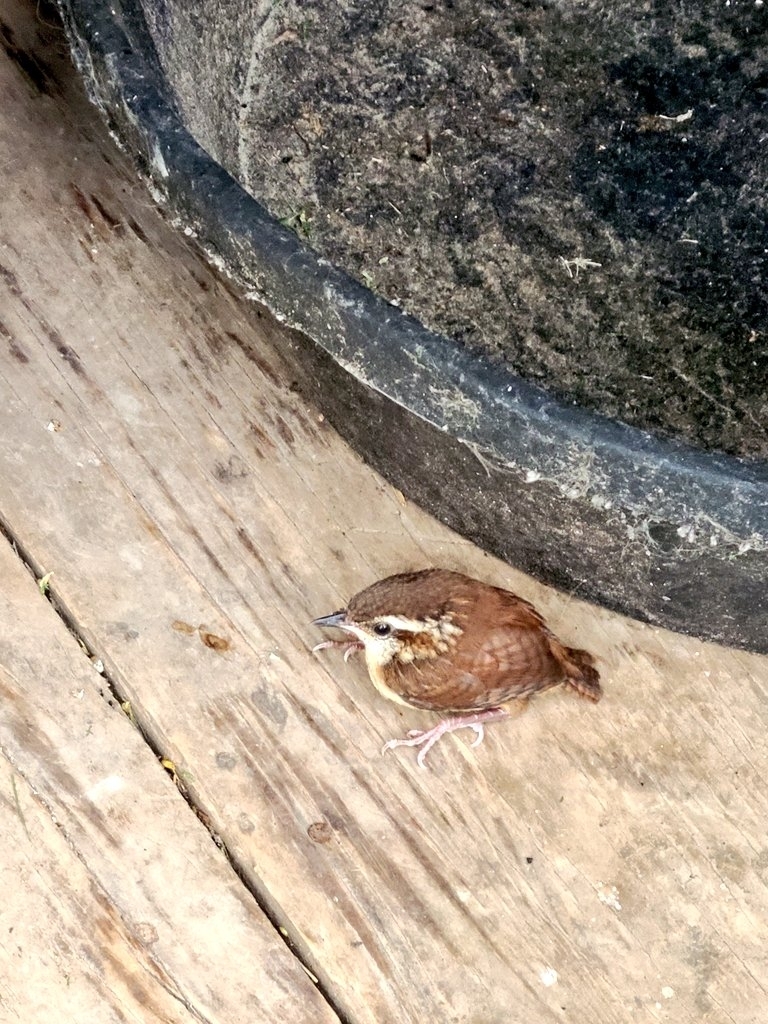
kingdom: Animalia
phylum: Chordata
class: Aves
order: Passeriformes
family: Troglodytidae
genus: Thryothorus
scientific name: Thryothorus ludovicianus
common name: Carolina wren
